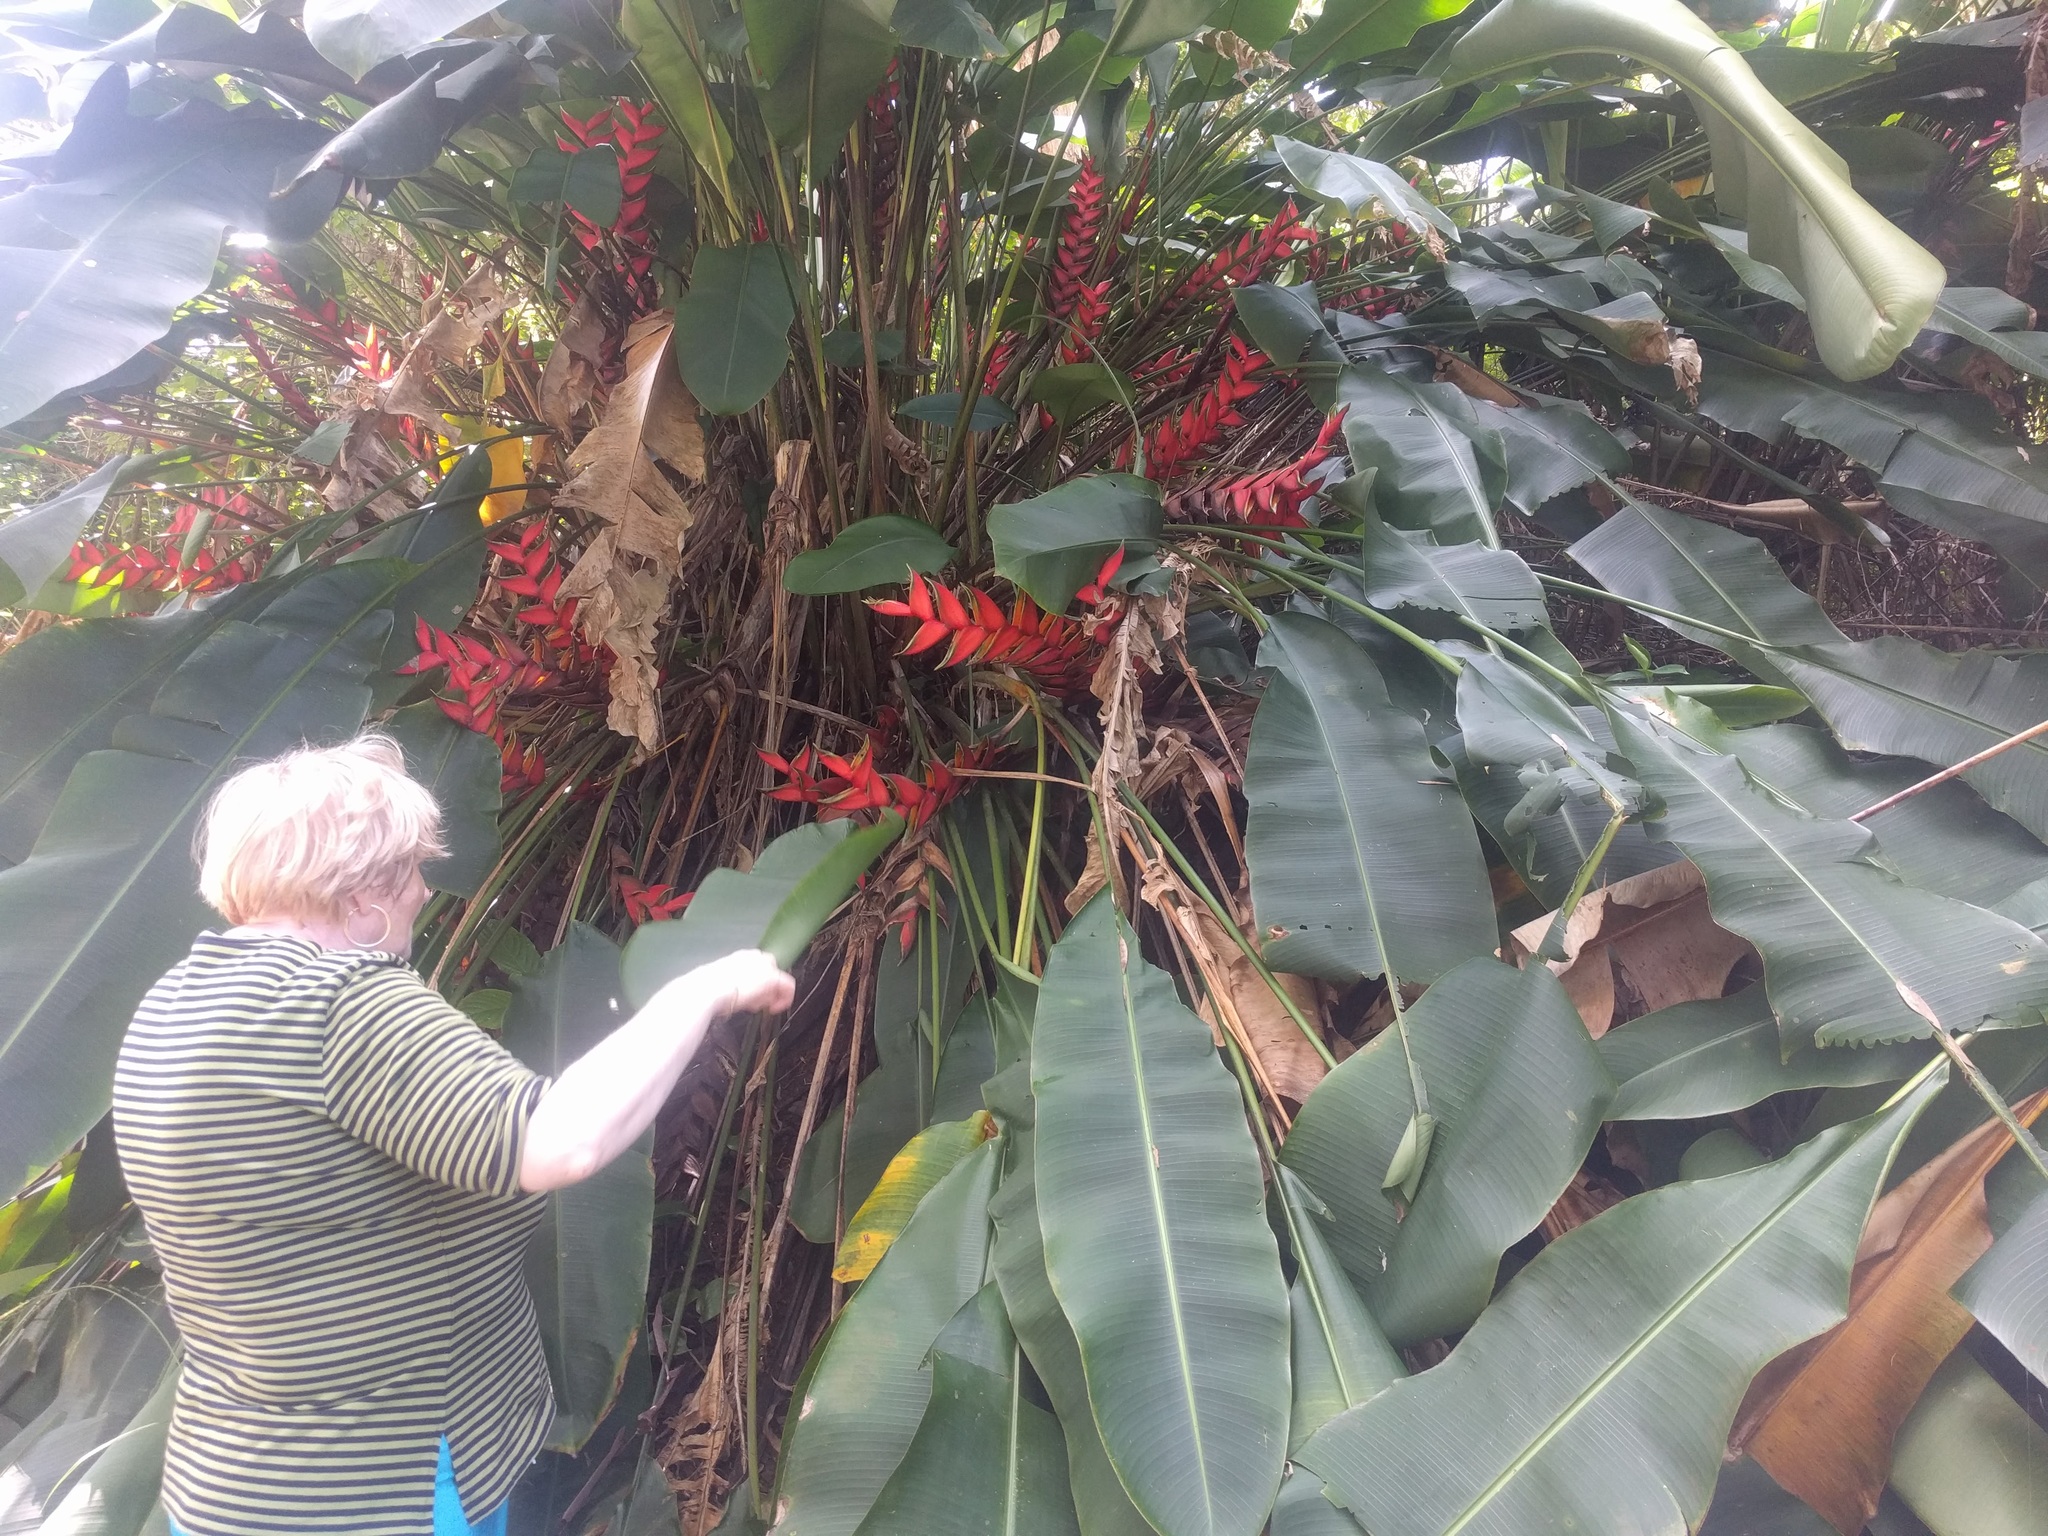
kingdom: Plantae
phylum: Tracheophyta
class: Liliopsida
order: Zingiberales
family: Heliconiaceae
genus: Heliconia
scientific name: Heliconia bihai
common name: Macaw flower
